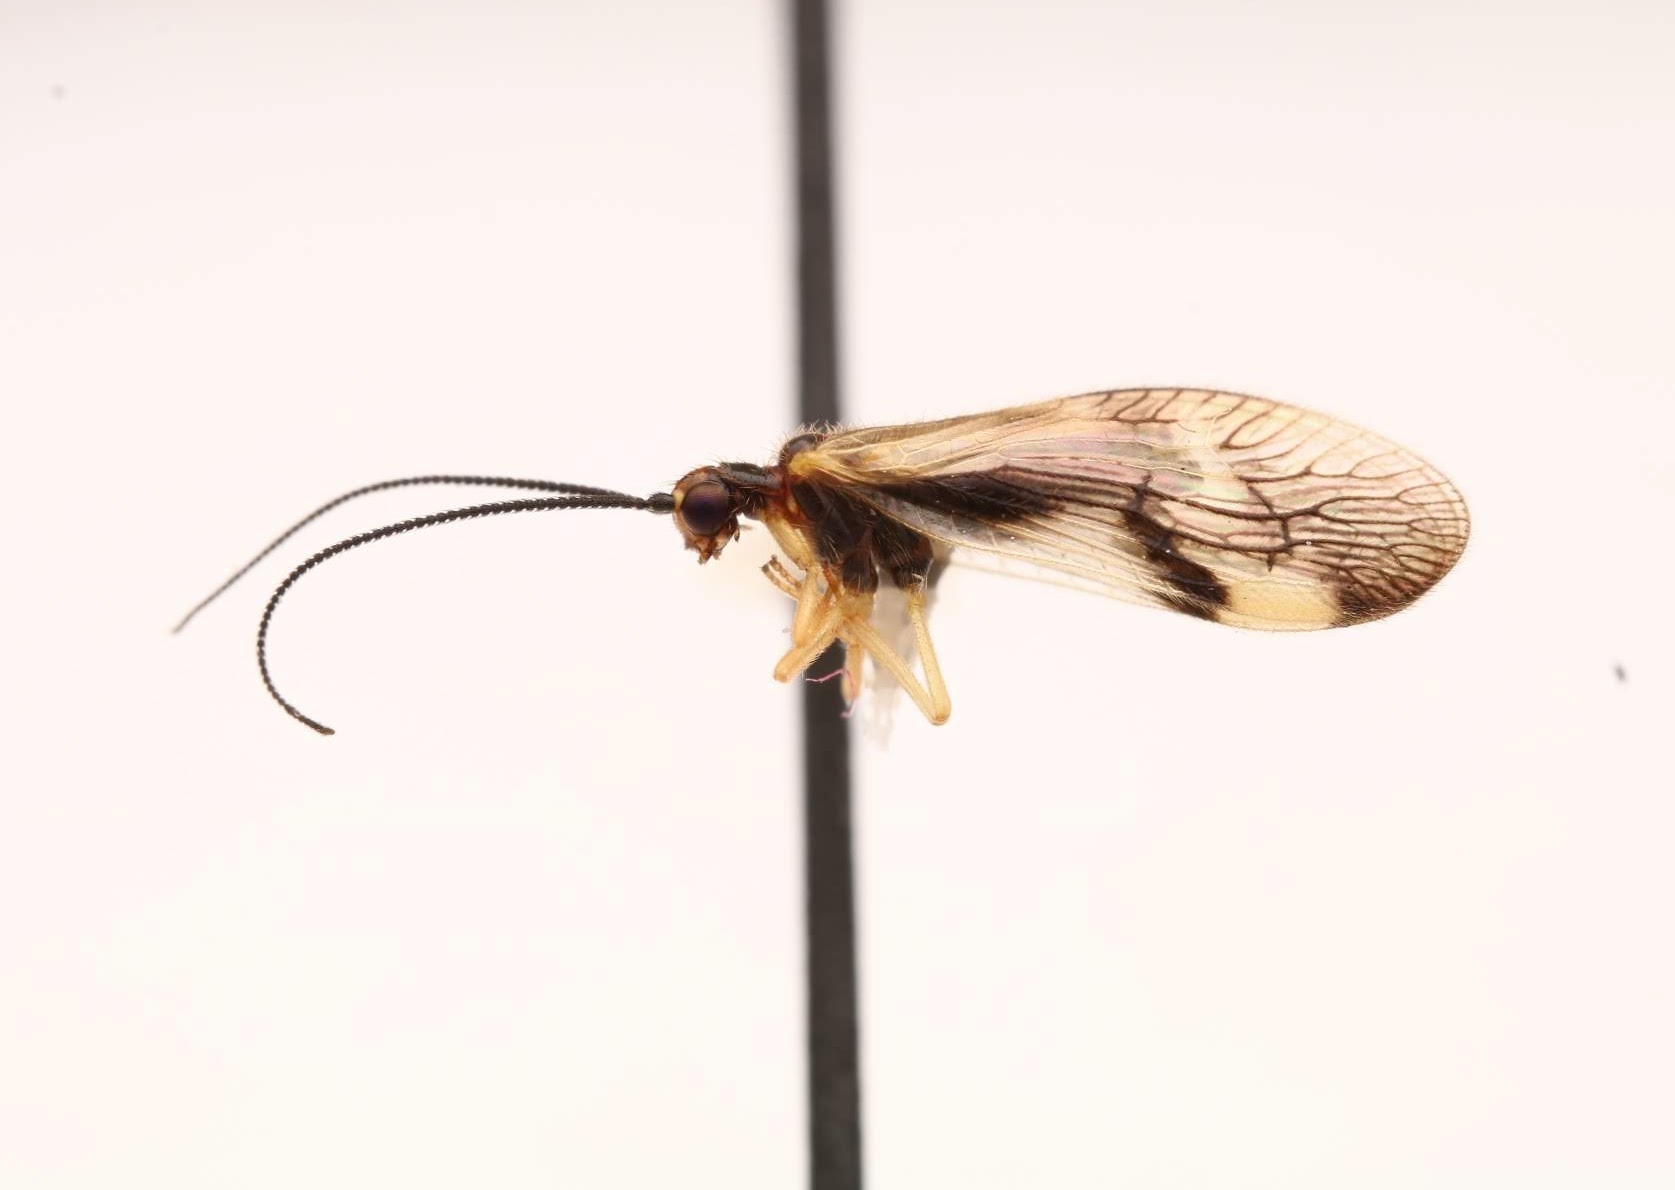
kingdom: Animalia
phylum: Arthropoda
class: Insecta
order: Neuroptera
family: Sisyridae
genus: Climacia
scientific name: Climacia areolaris
